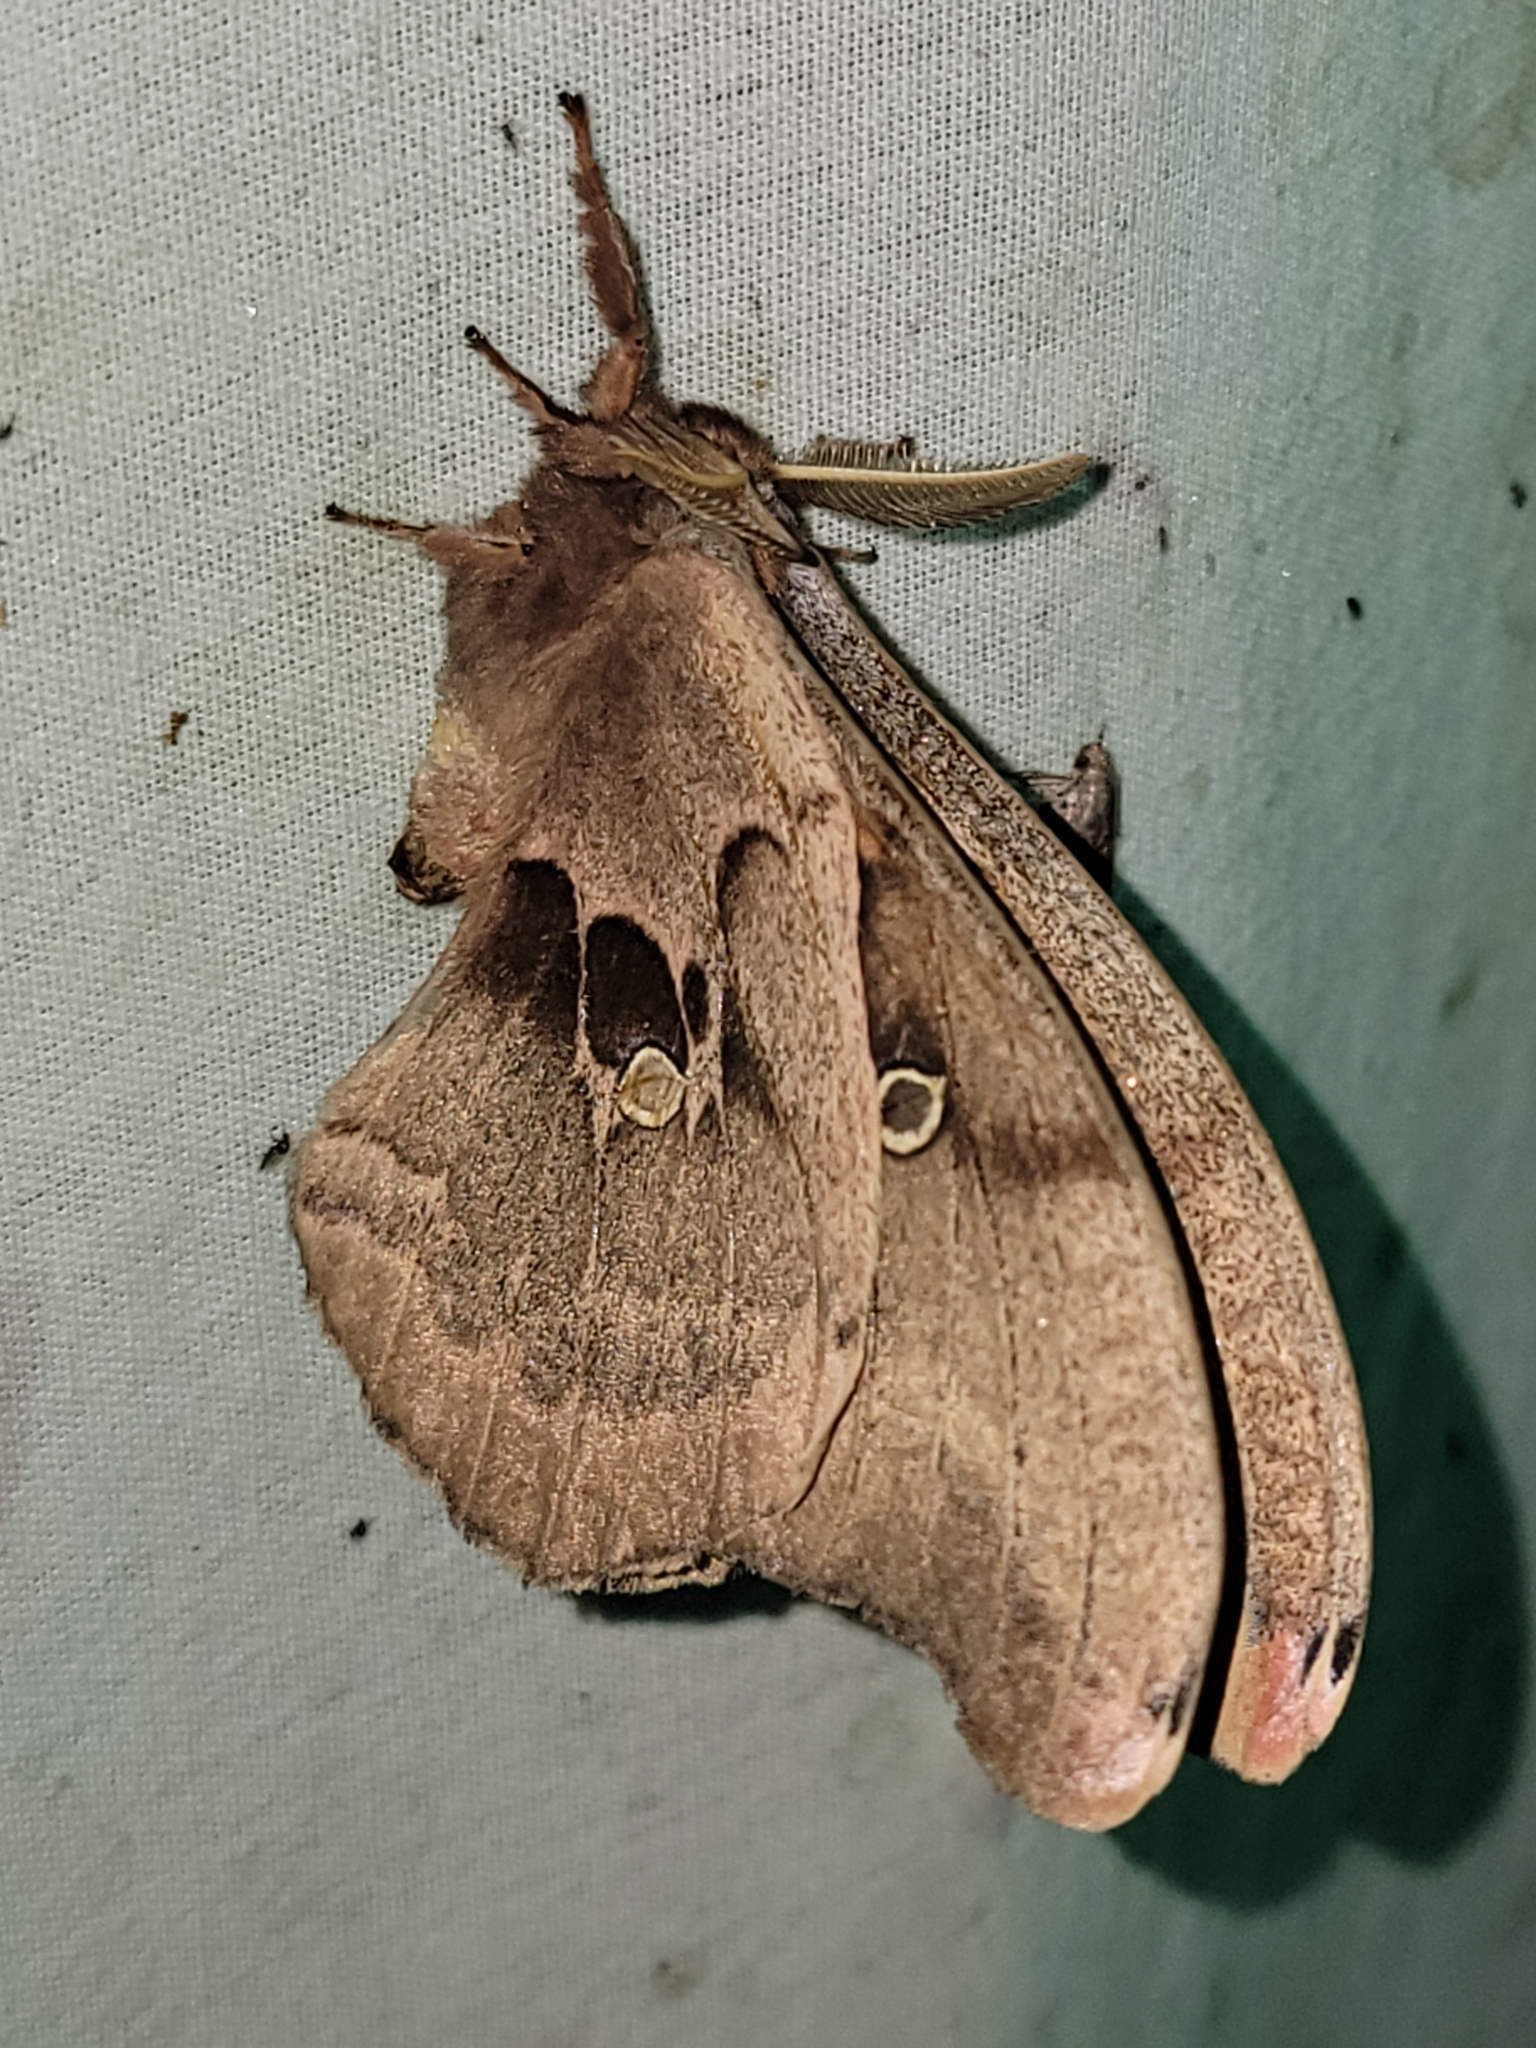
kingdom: Animalia
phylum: Arthropoda
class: Insecta
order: Lepidoptera
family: Saturniidae
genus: Antheraea
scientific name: Antheraea polyphemus
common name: Polyphemus moth
